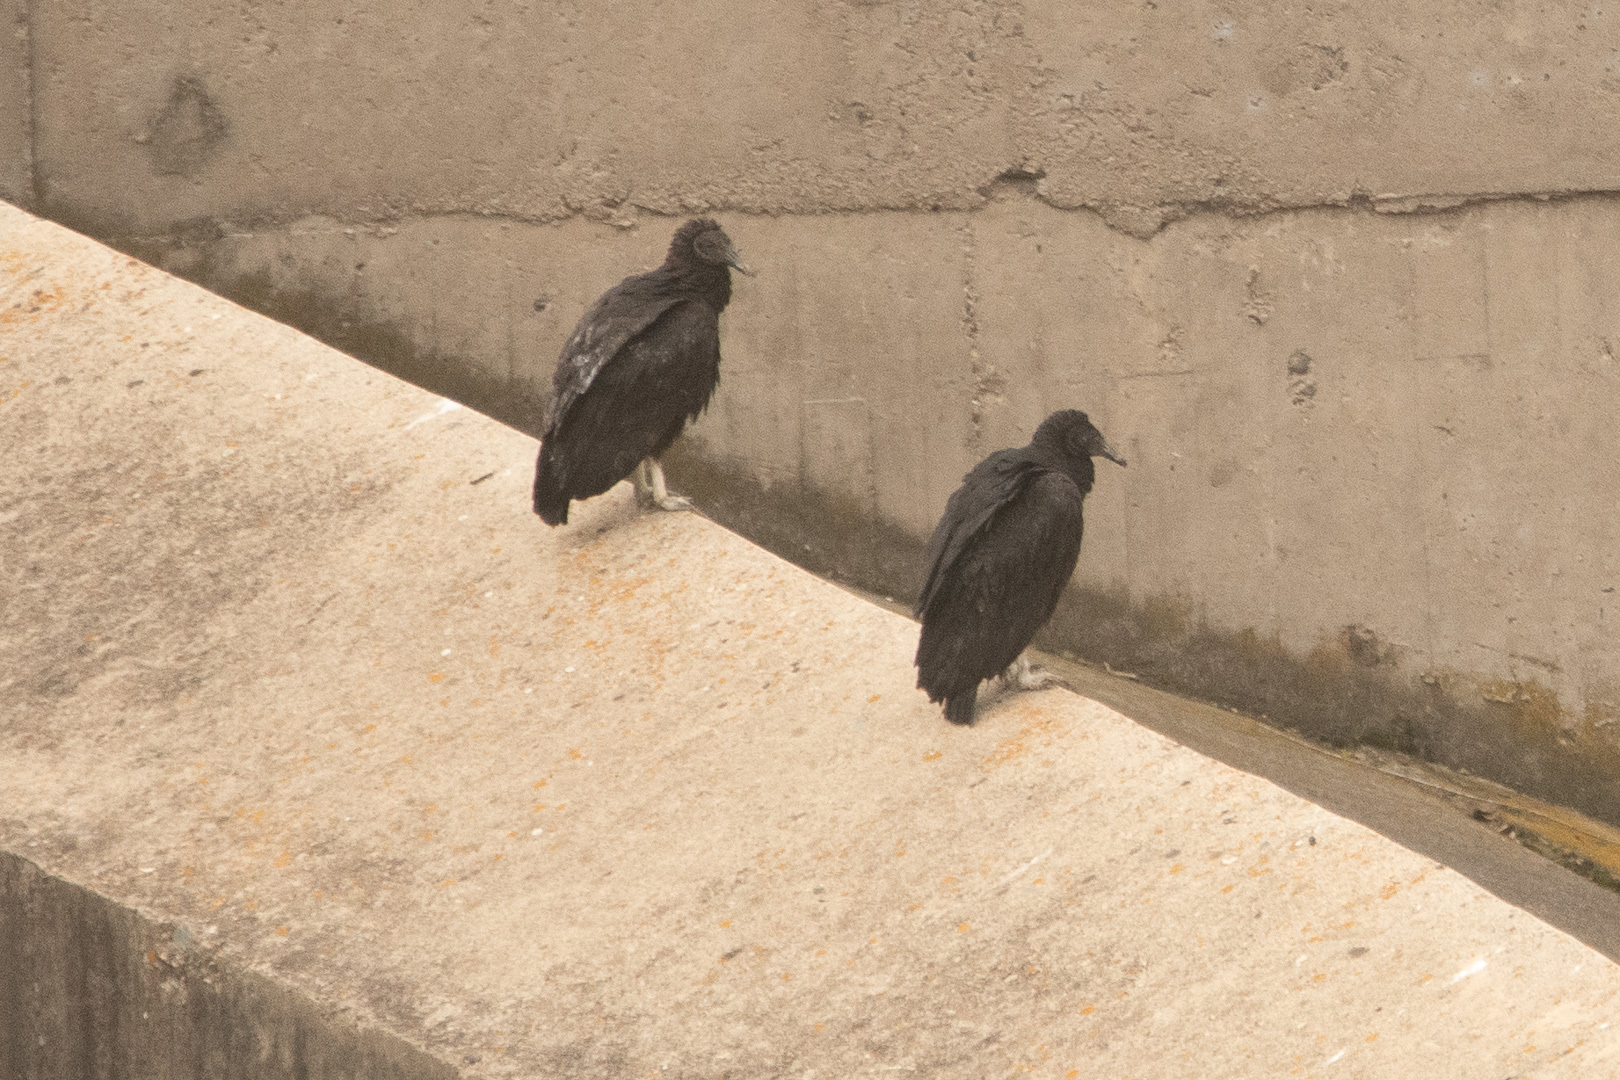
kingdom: Animalia
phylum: Chordata
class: Aves
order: Accipitriformes
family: Cathartidae
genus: Coragyps
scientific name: Coragyps atratus
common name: Black vulture
